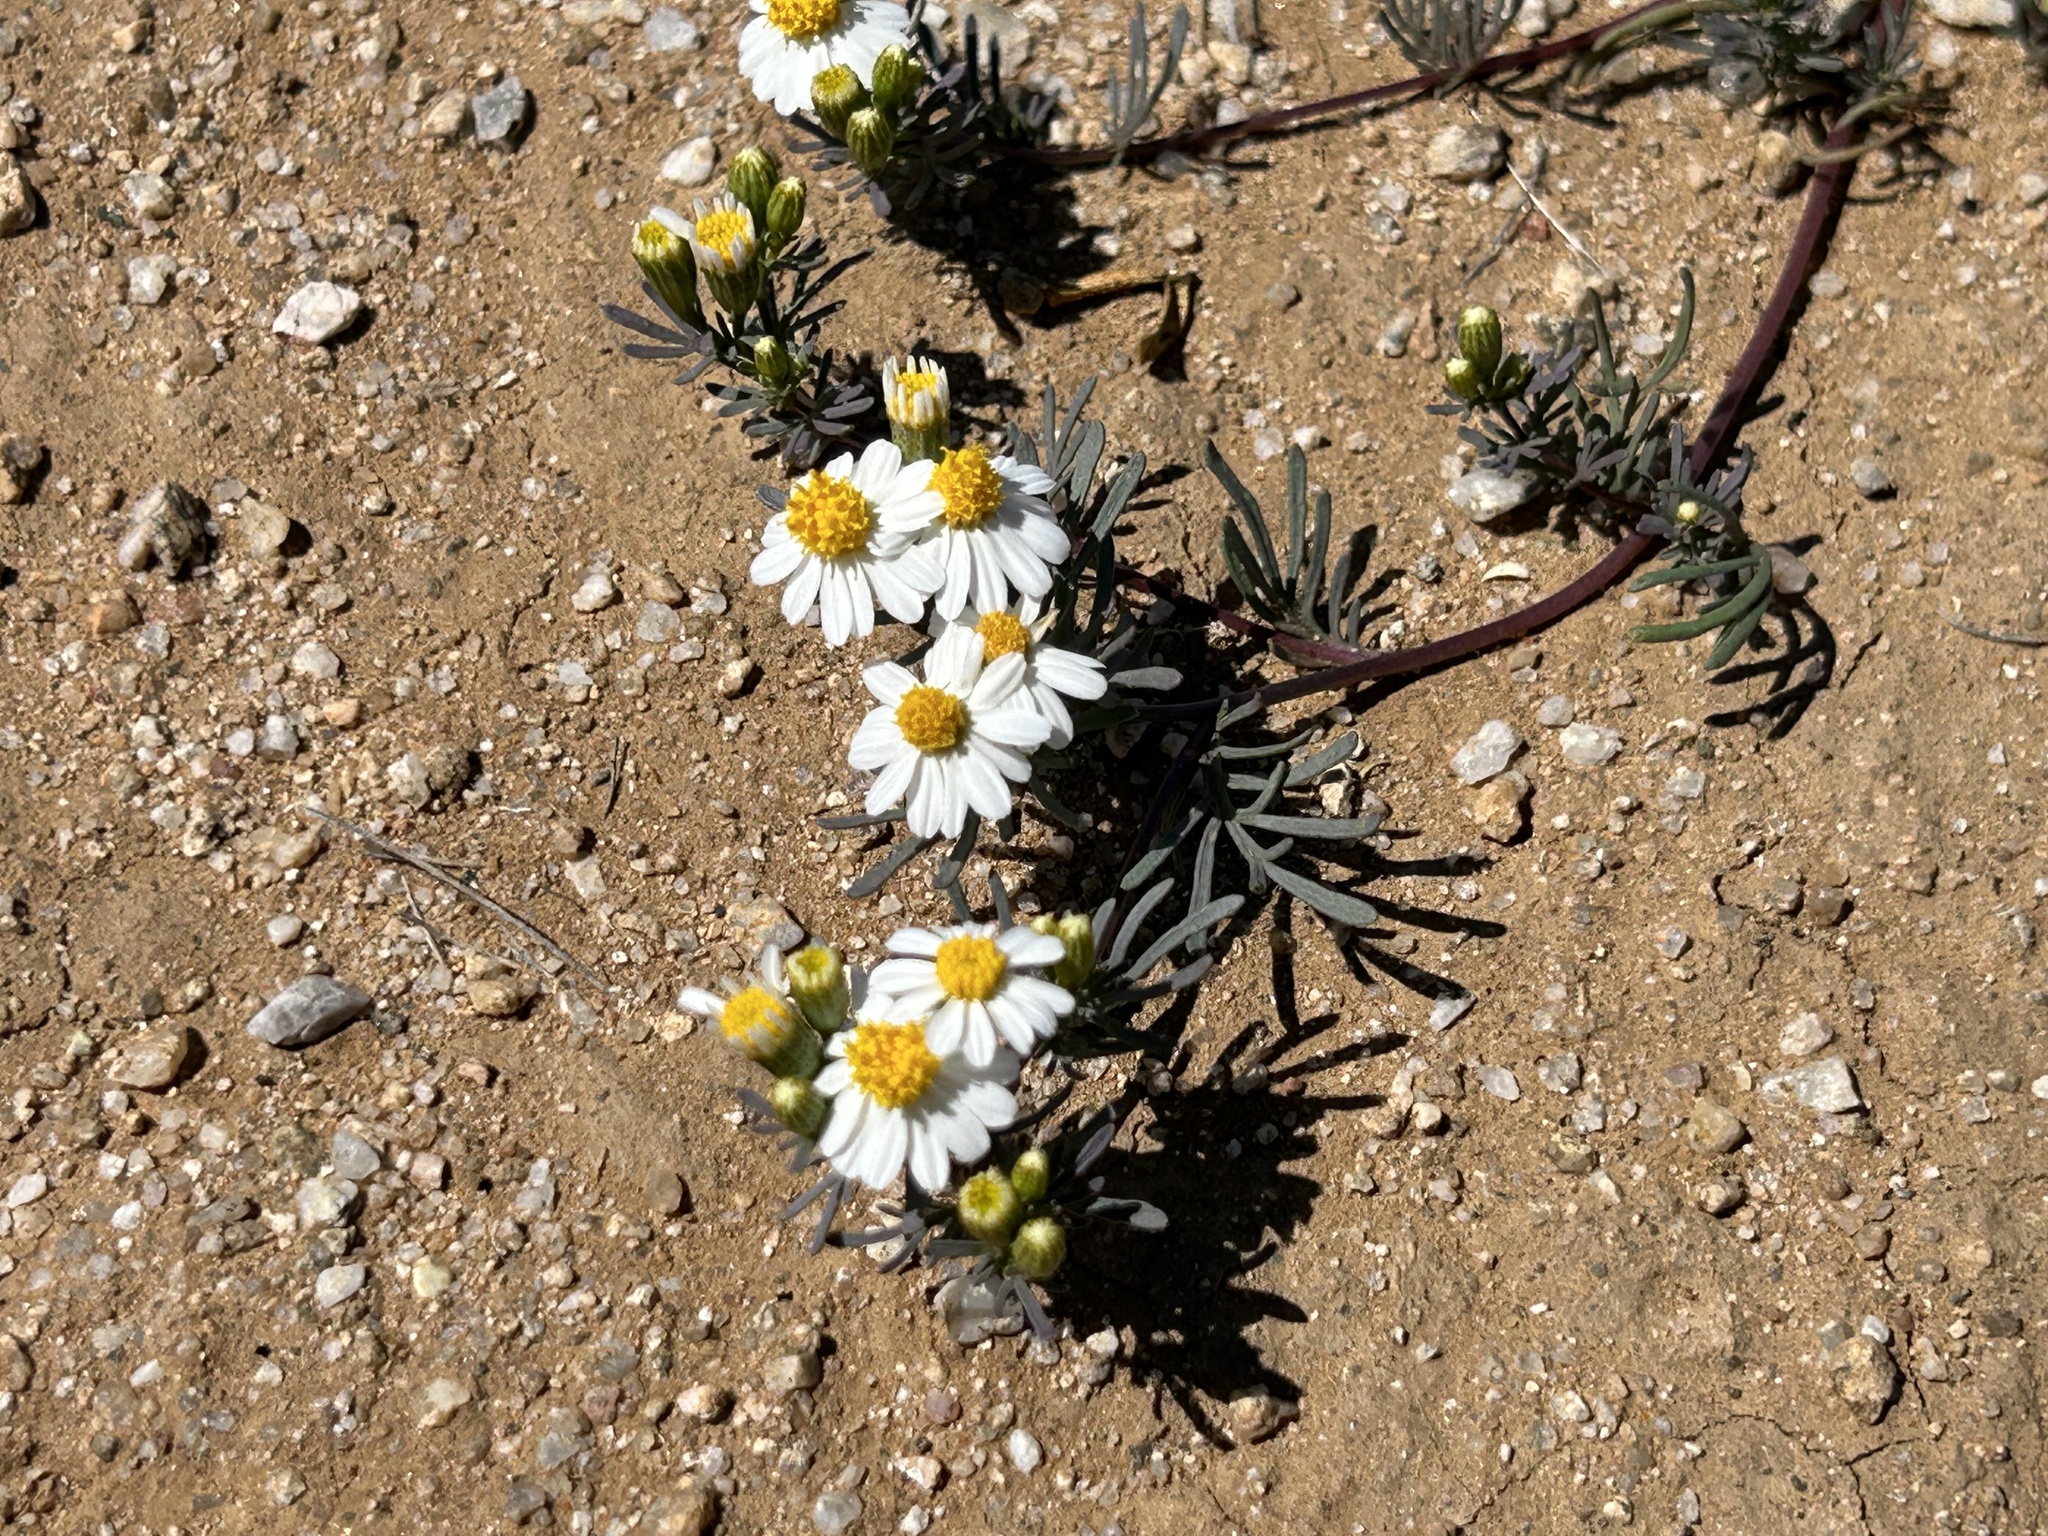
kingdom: Plantae
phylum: Tracheophyta
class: Magnoliopsida
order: Asterales
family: Asteraceae
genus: Thymophylla
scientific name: Thymophylla concinna
